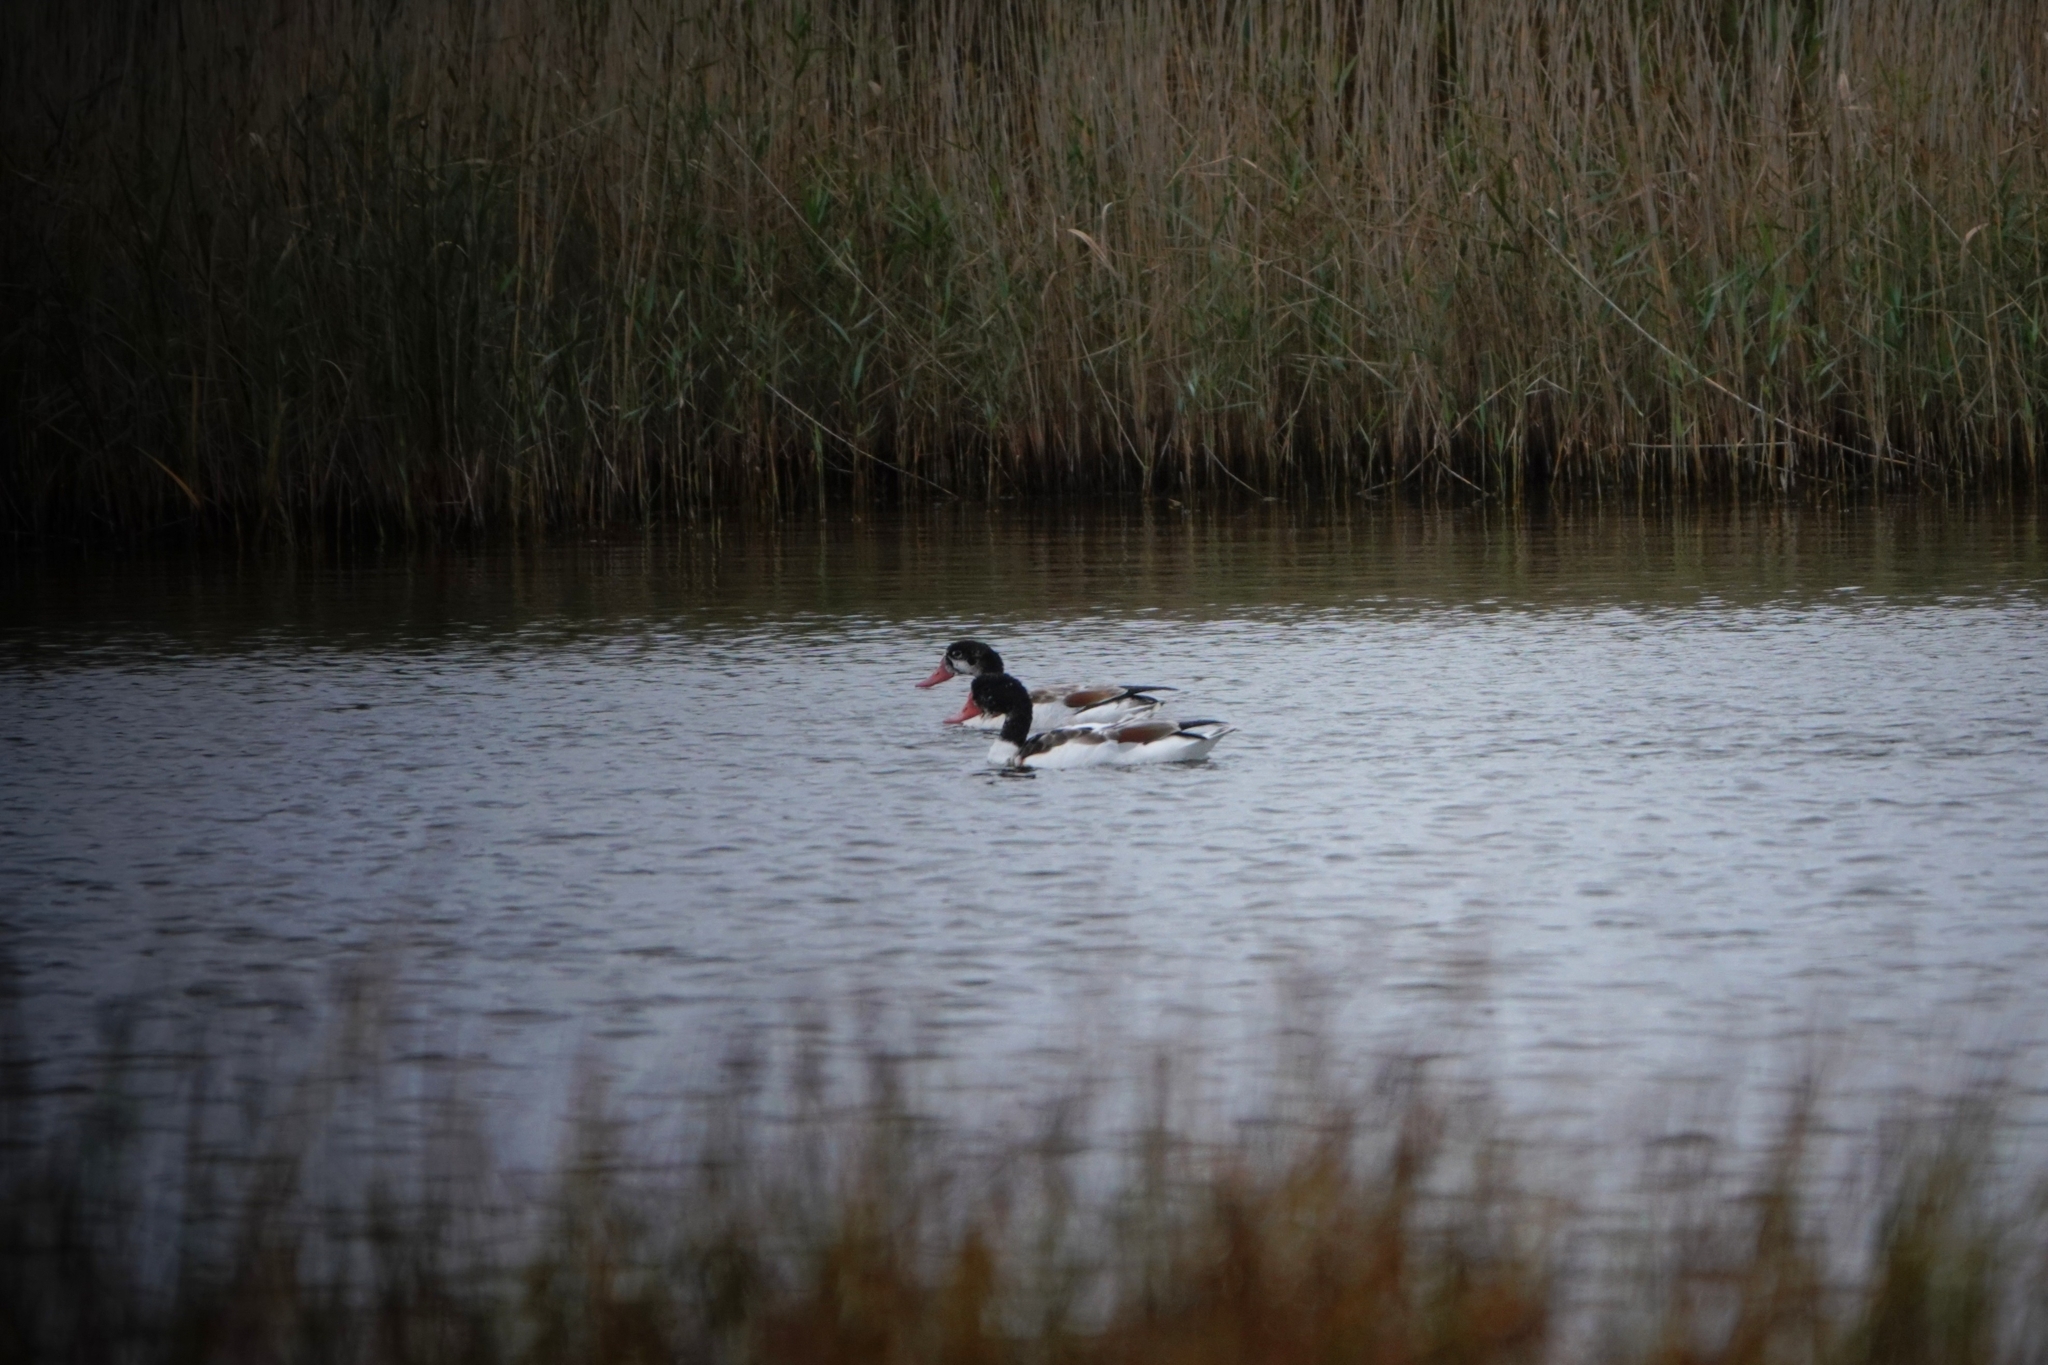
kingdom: Animalia
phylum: Chordata
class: Aves
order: Anseriformes
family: Anatidae
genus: Tadorna
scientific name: Tadorna tadorna
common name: Common shelduck
